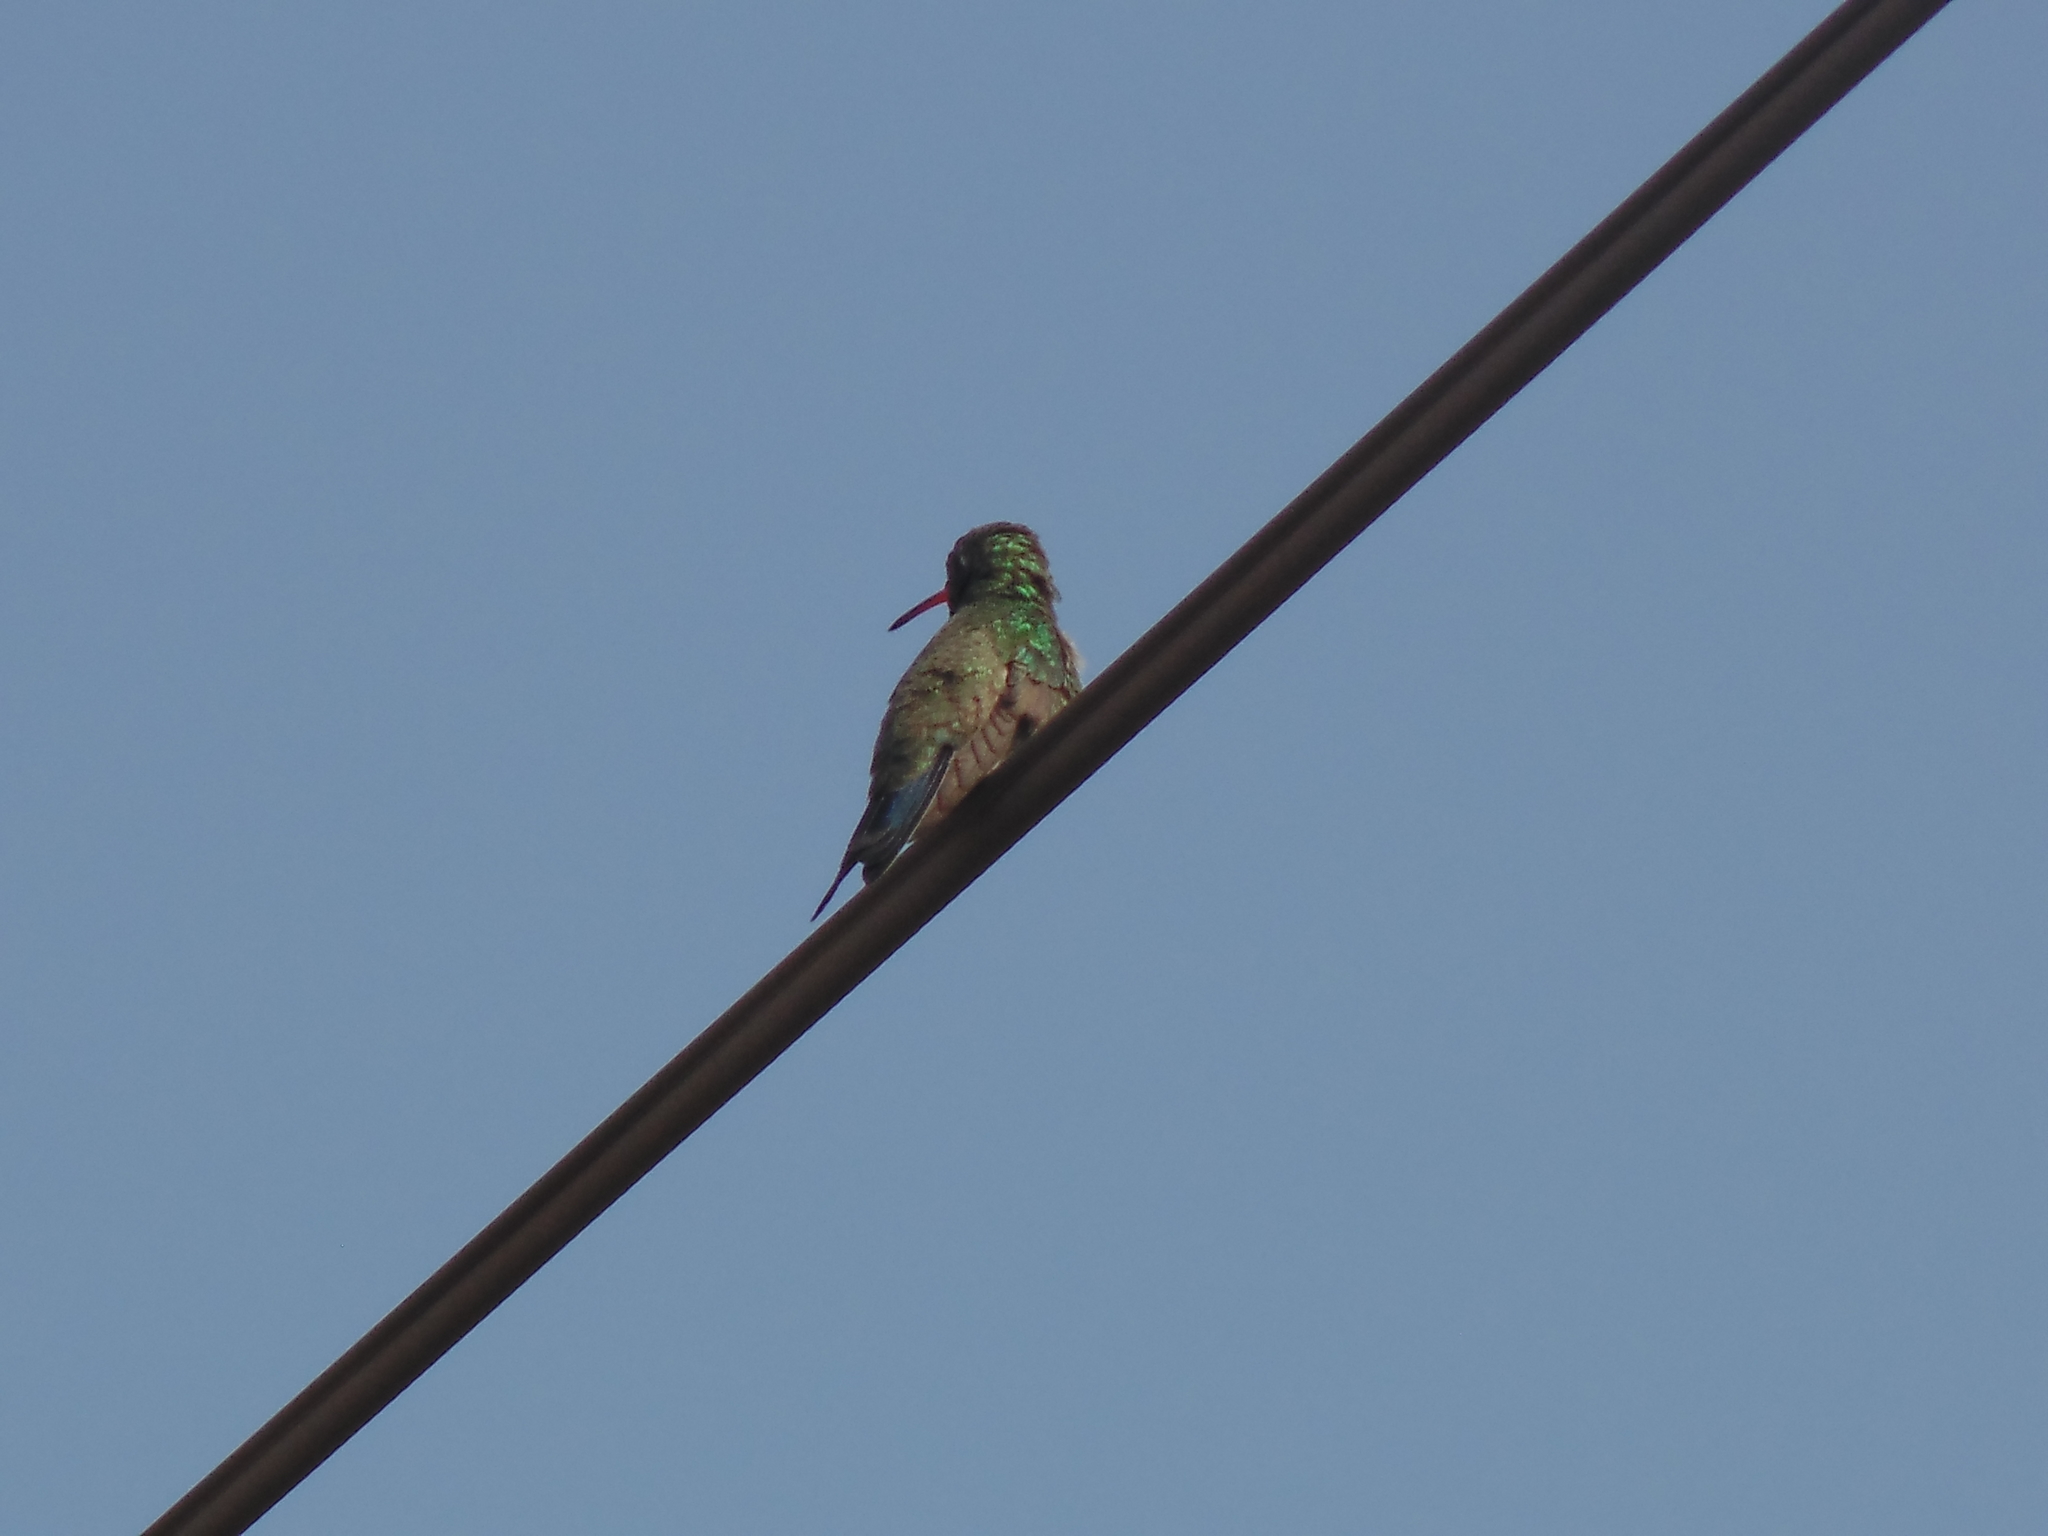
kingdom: Animalia
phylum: Chordata
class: Aves
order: Apodiformes
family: Trochilidae
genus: Cynanthus
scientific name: Cynanthus latirostris
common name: Broad-billed hummingbird
